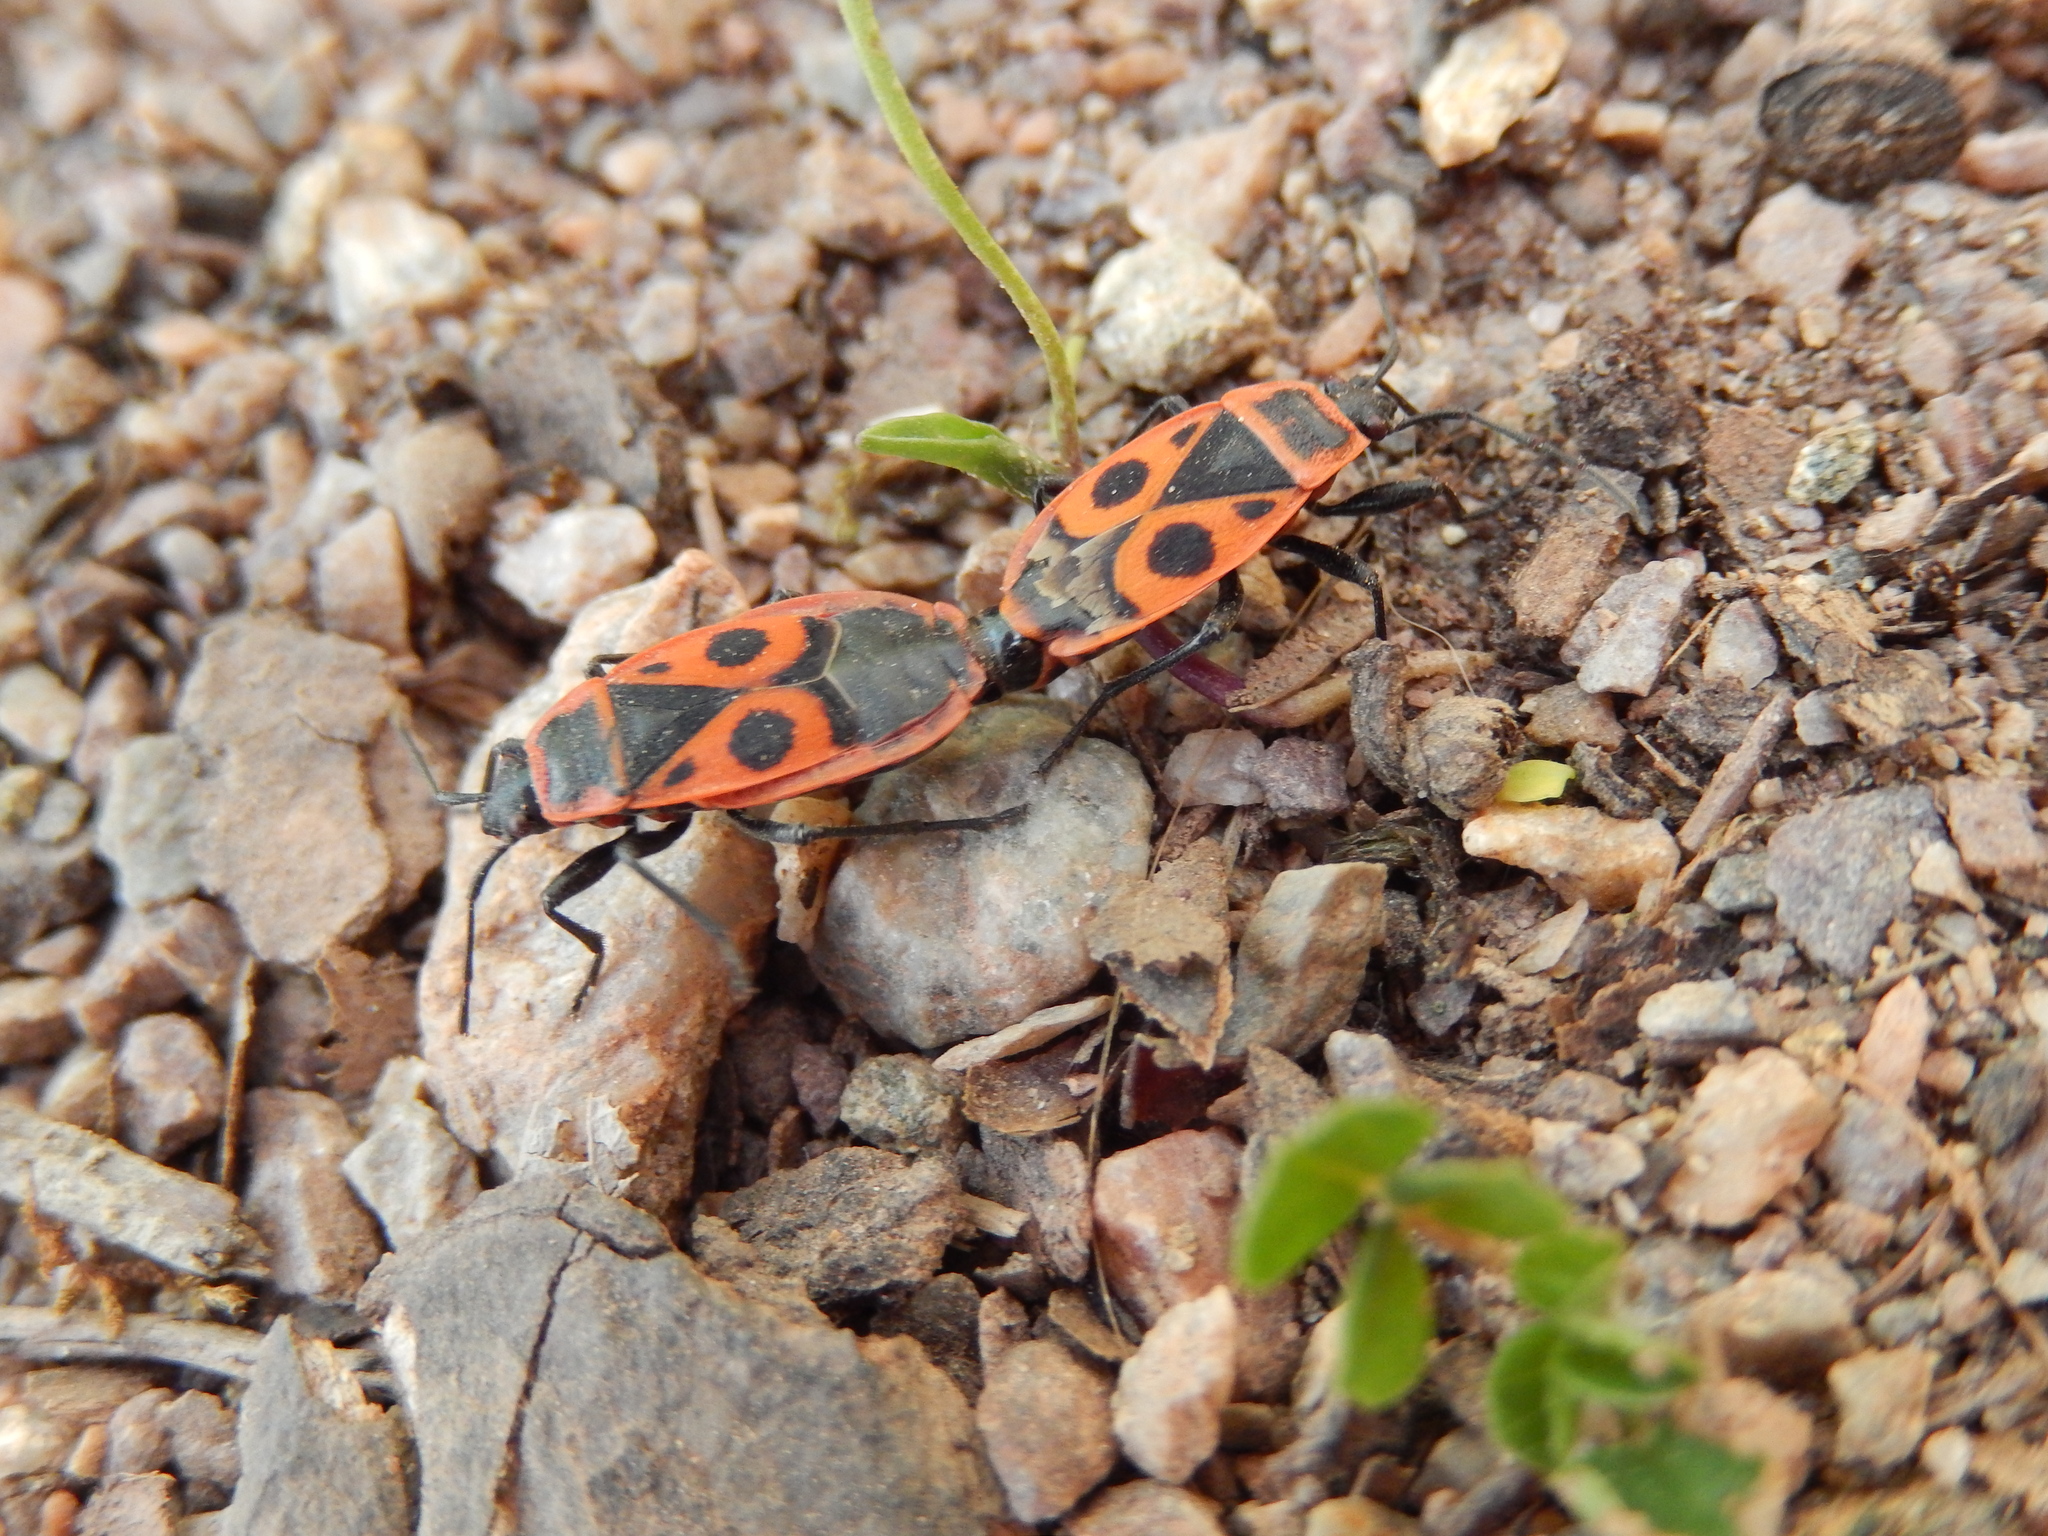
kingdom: Animalia
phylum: Arthropoda
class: Insecta
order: Hemiptera
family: Pyrrhocoridae
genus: Pyrrhocoris
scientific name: Pyrrhocoris apterus
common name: Firebug
